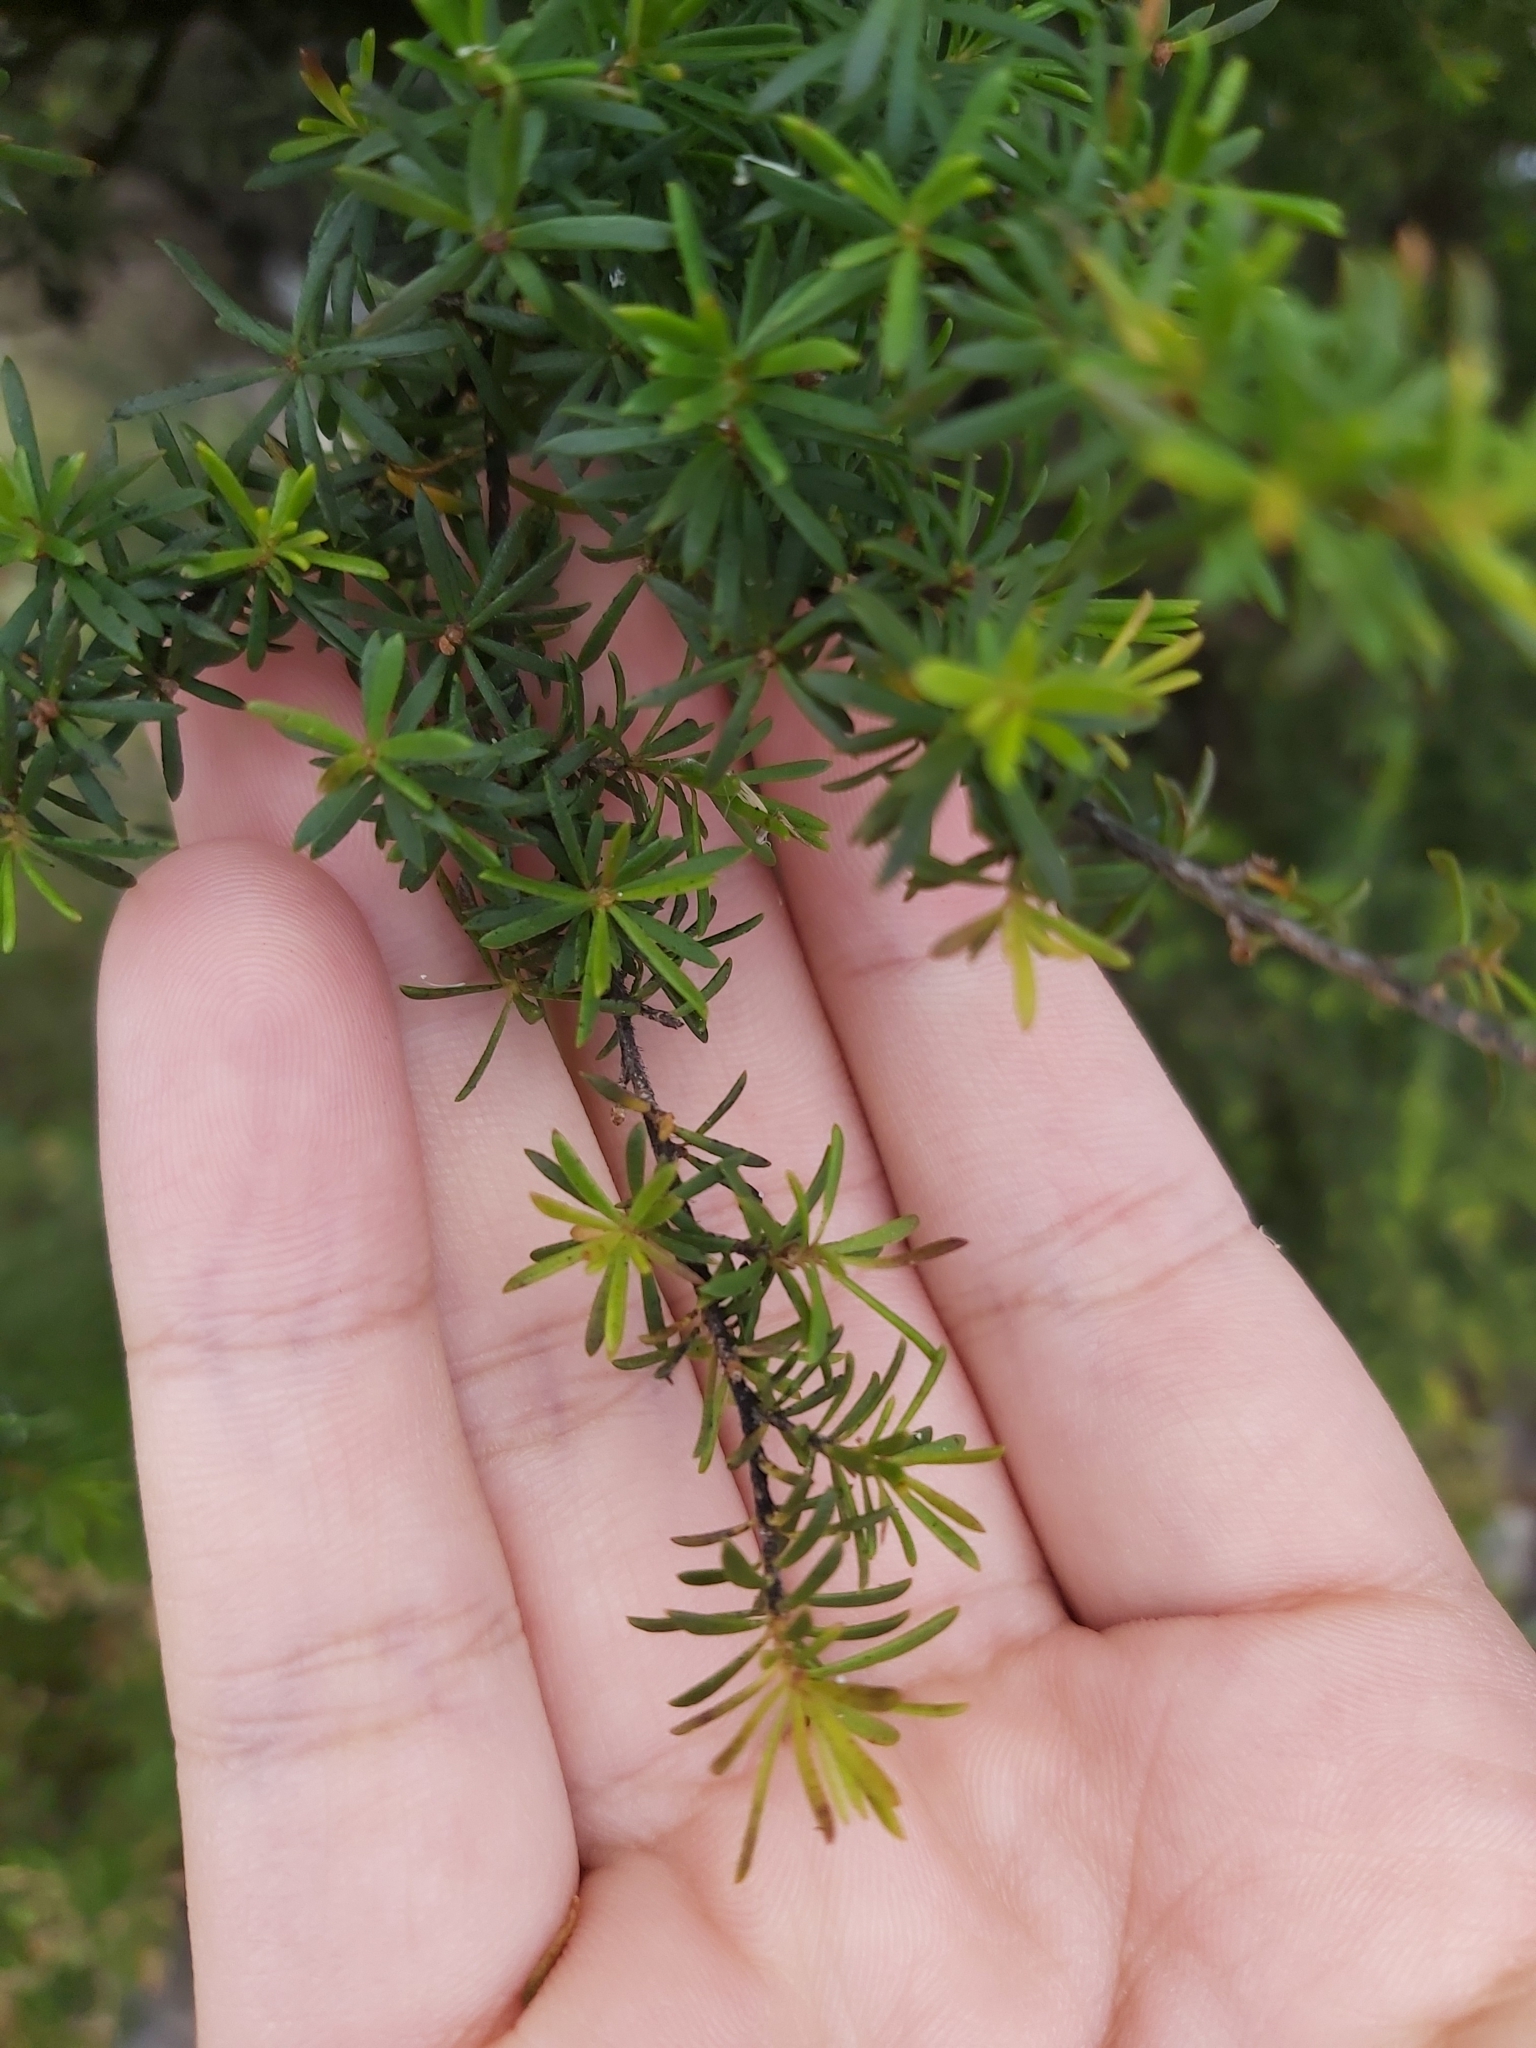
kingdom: Plantae
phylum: Tracheophyta
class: Magnoliopsida
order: Myrtales
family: Myrtaceae
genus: Kunzea
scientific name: Kunzea ambigua
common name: Tickbush
